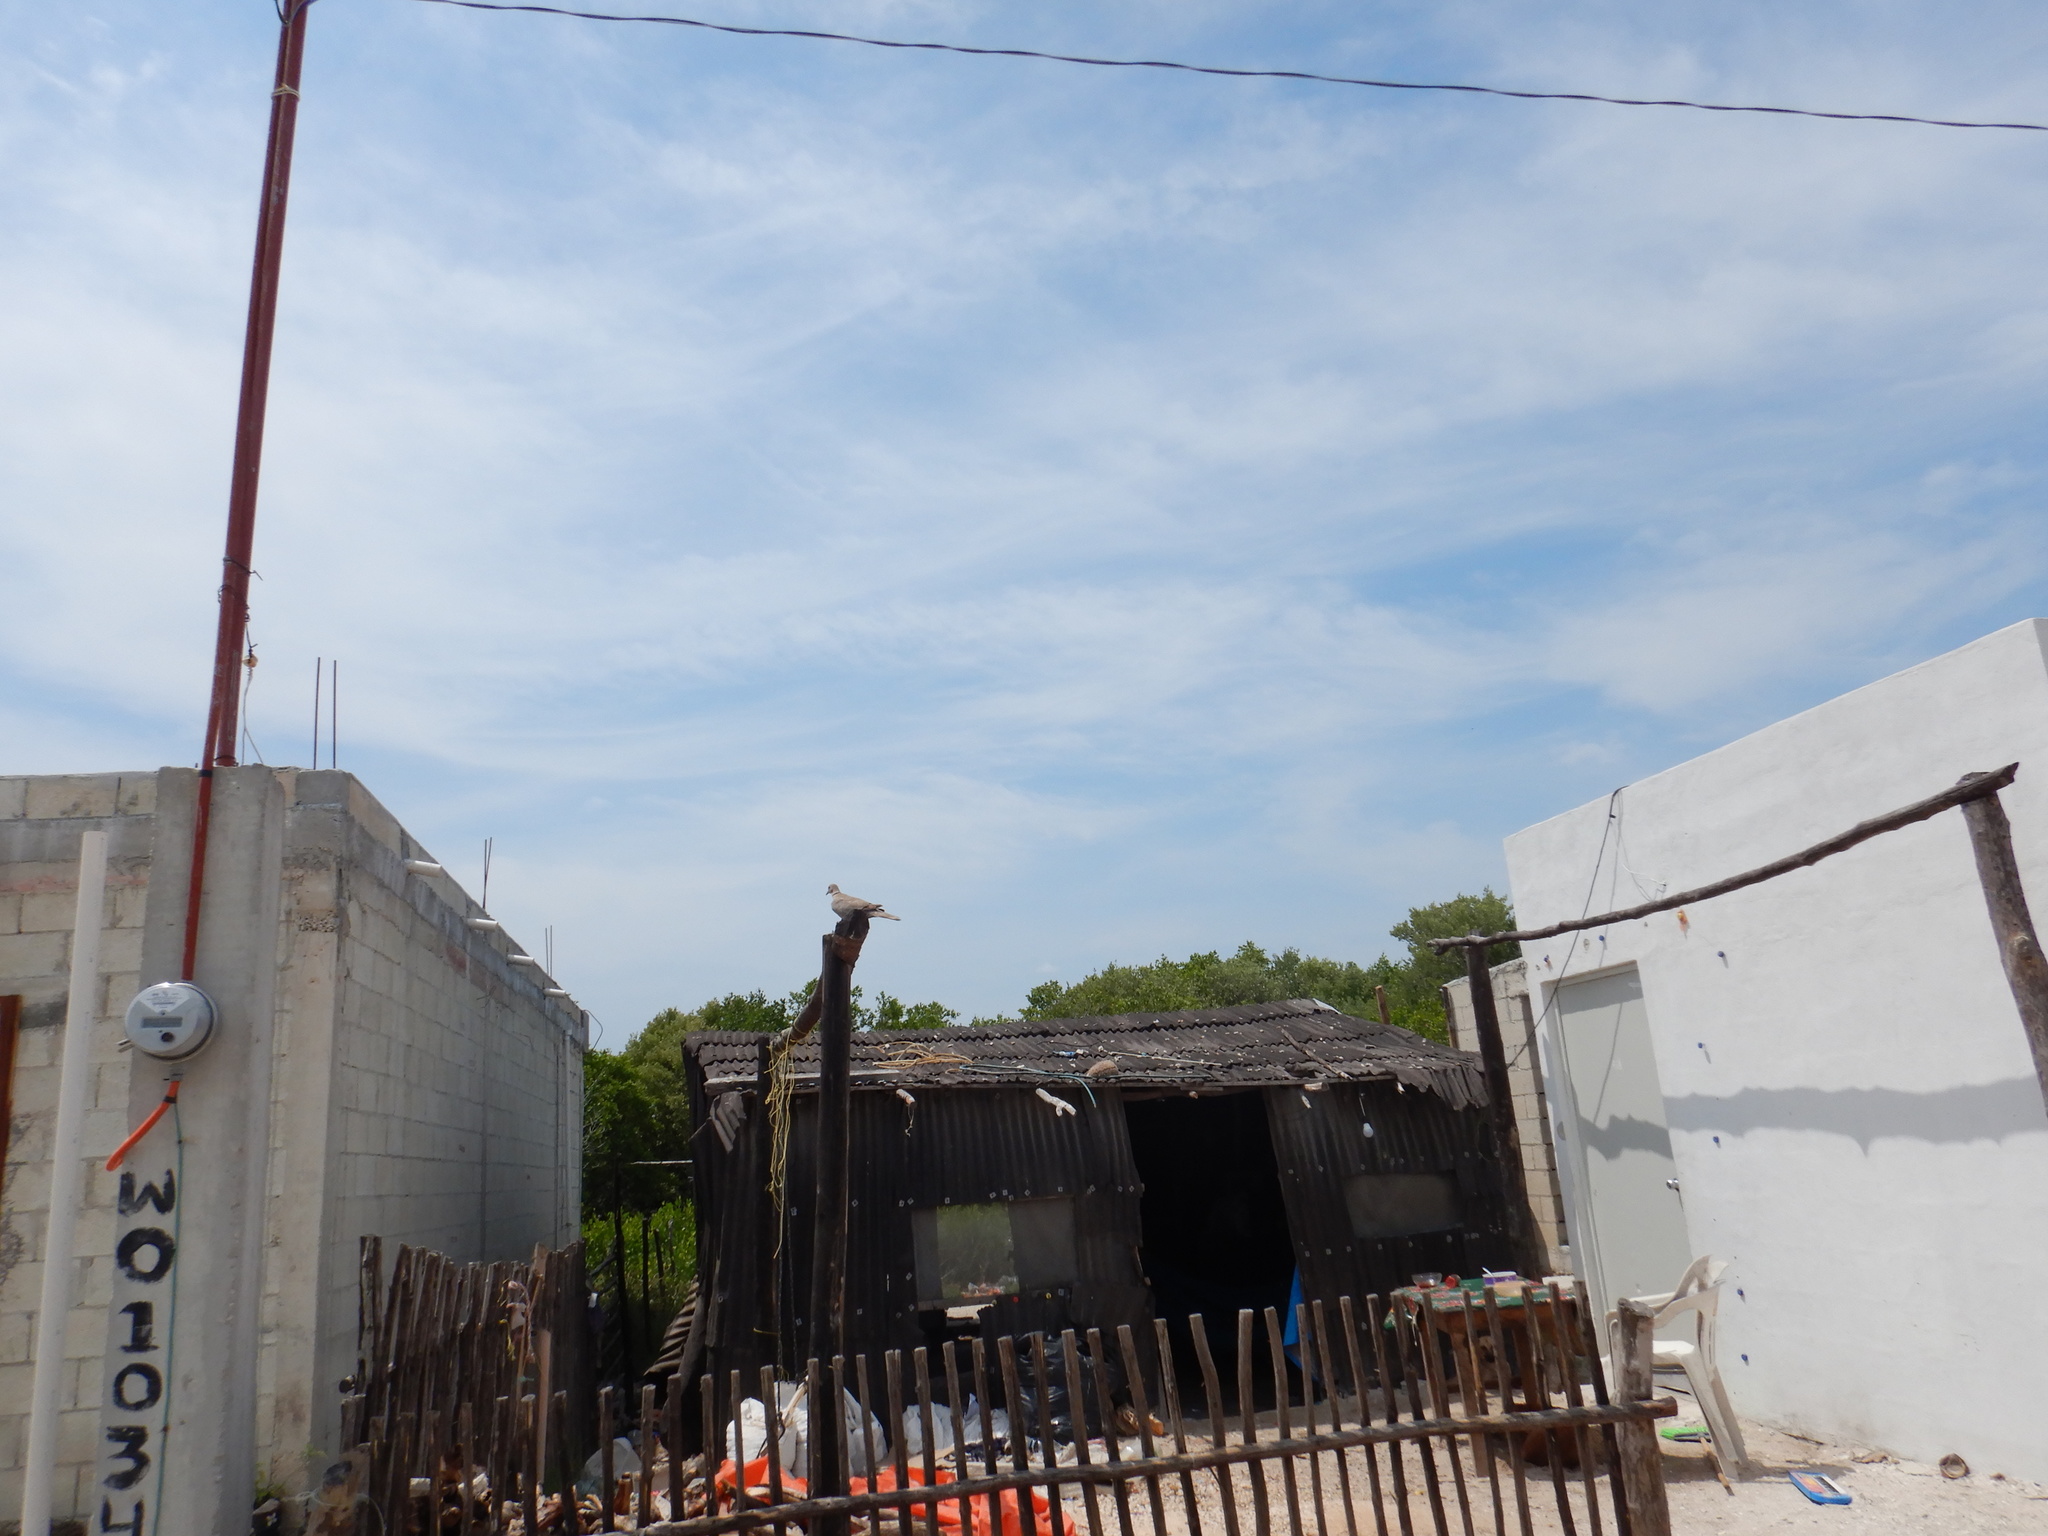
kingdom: Animalia
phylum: Chordata
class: Aves
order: Columbiformes
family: Columbidae
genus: Streptopelia
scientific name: Streptopelia decaocto
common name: Eurasian collared dove
